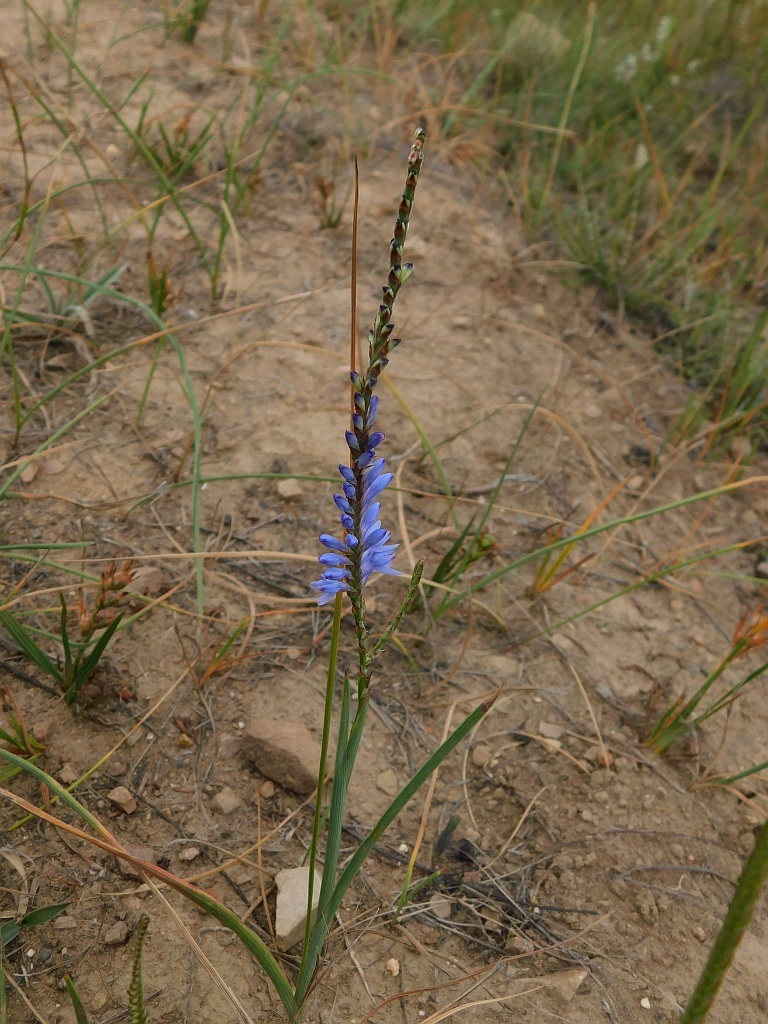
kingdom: Plantae
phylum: Tracheophyta
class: Liliopsida
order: Asparagales
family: Iridaceae
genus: Micranthus
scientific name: Micranthus plantagineus
